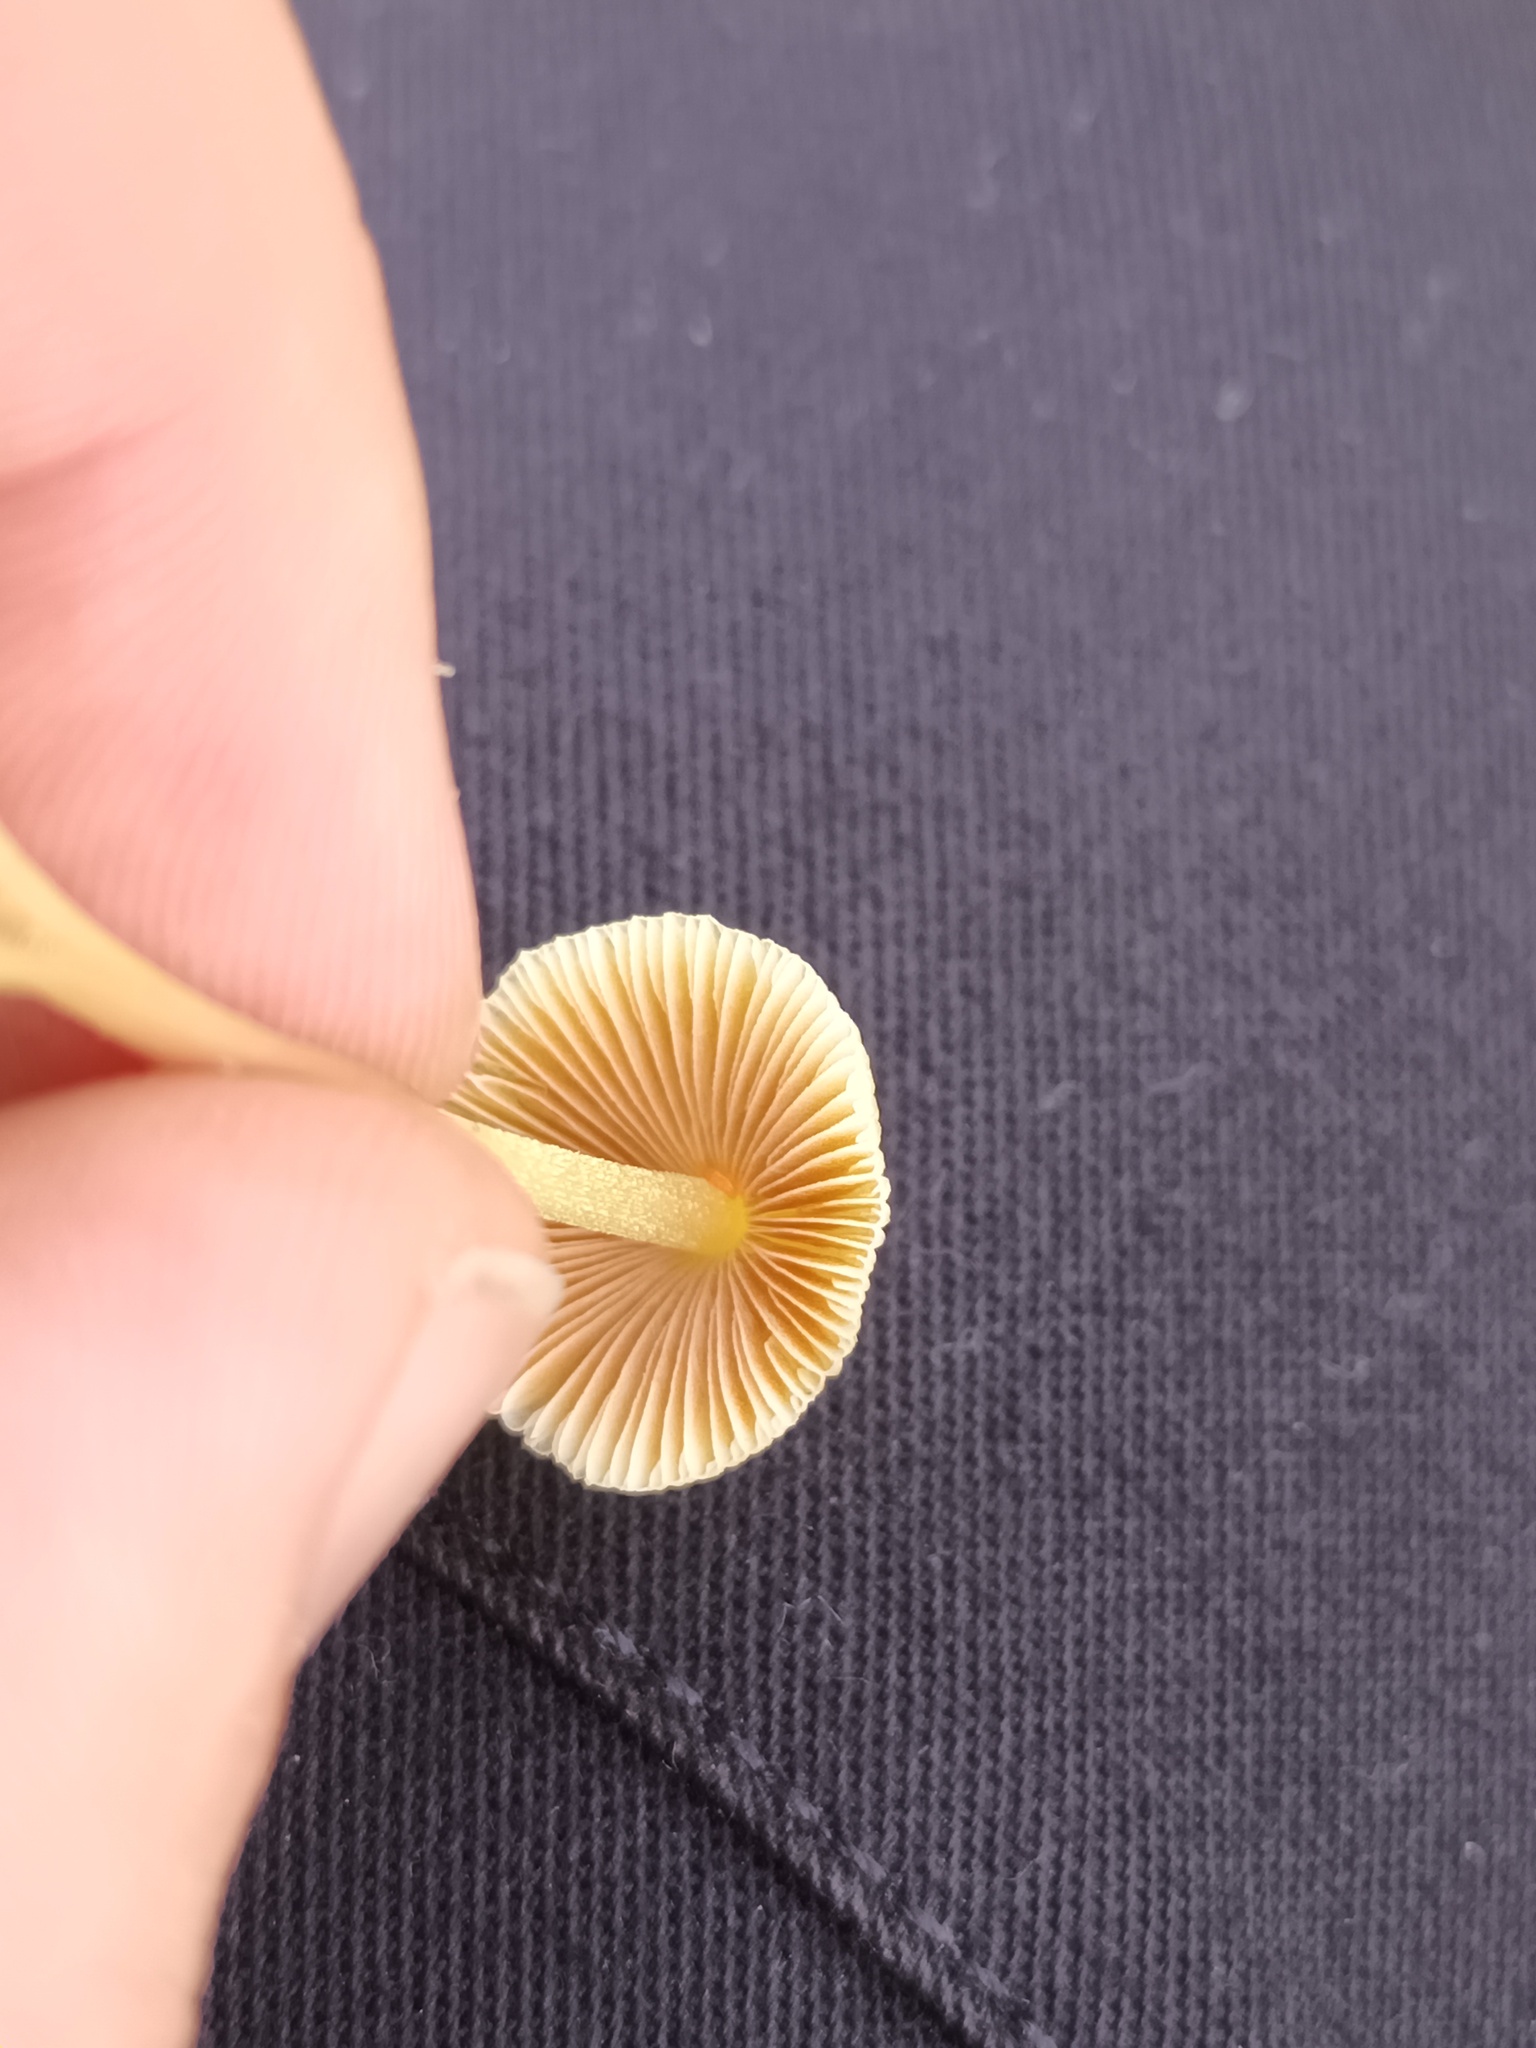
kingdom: Fungi
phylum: Basidiomycota
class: Agaricomycetes
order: Agaricales
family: Bolbitiaceae
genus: Bolbitius
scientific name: Bolbitius titubans
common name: Yellow fieldcap
